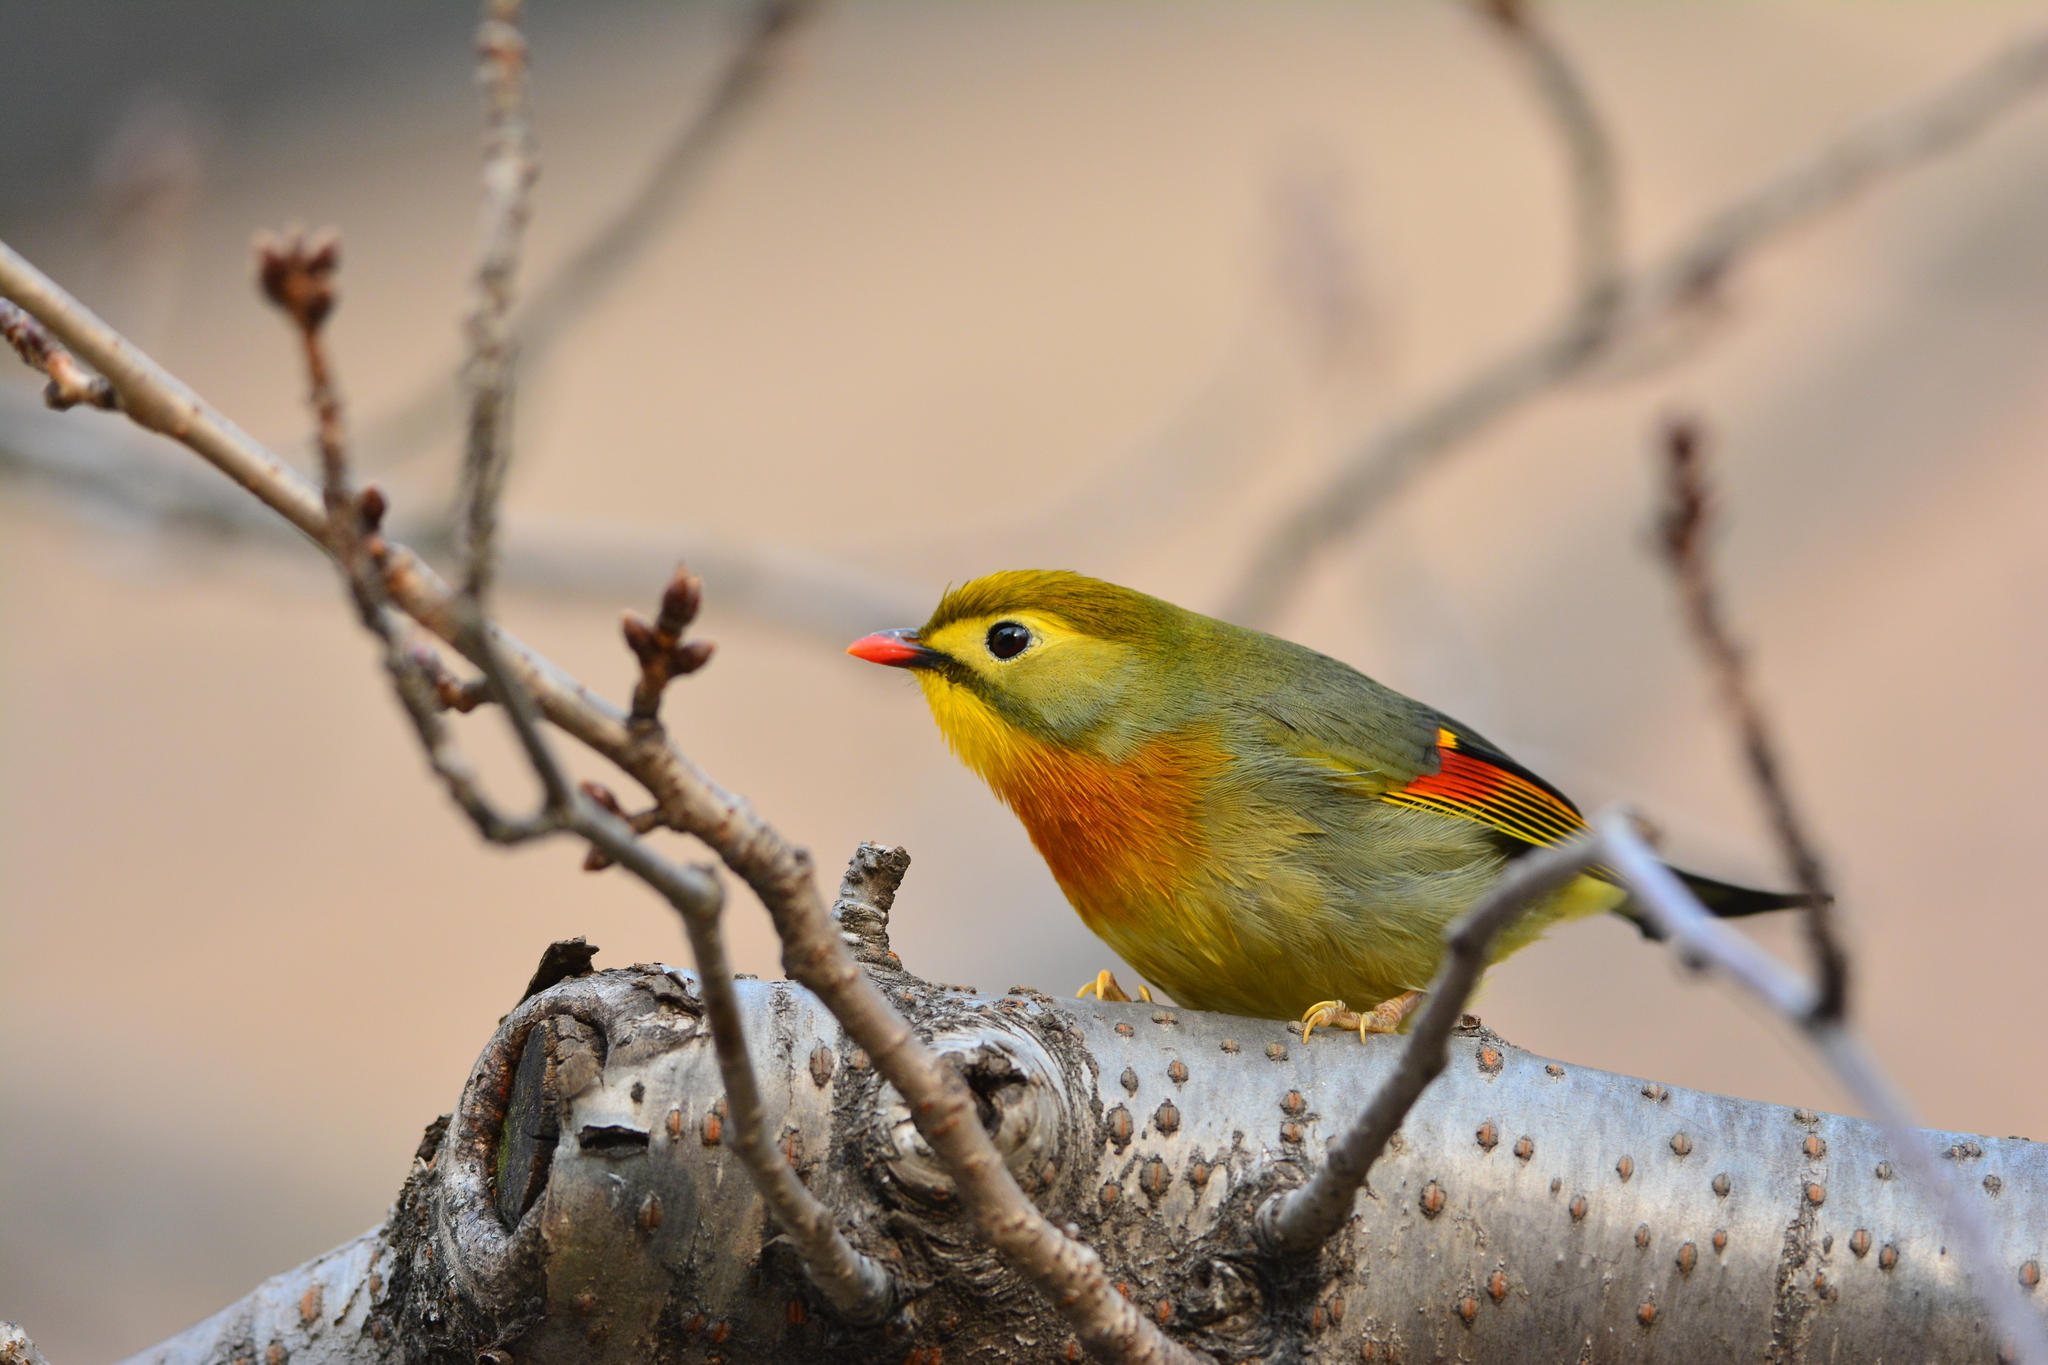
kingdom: Animalia
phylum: Chordata
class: Aves
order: Passeriformes
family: Leiothrichidae
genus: Leiothrix
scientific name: Leiothrix lutea
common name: Red-billed leiothrix
